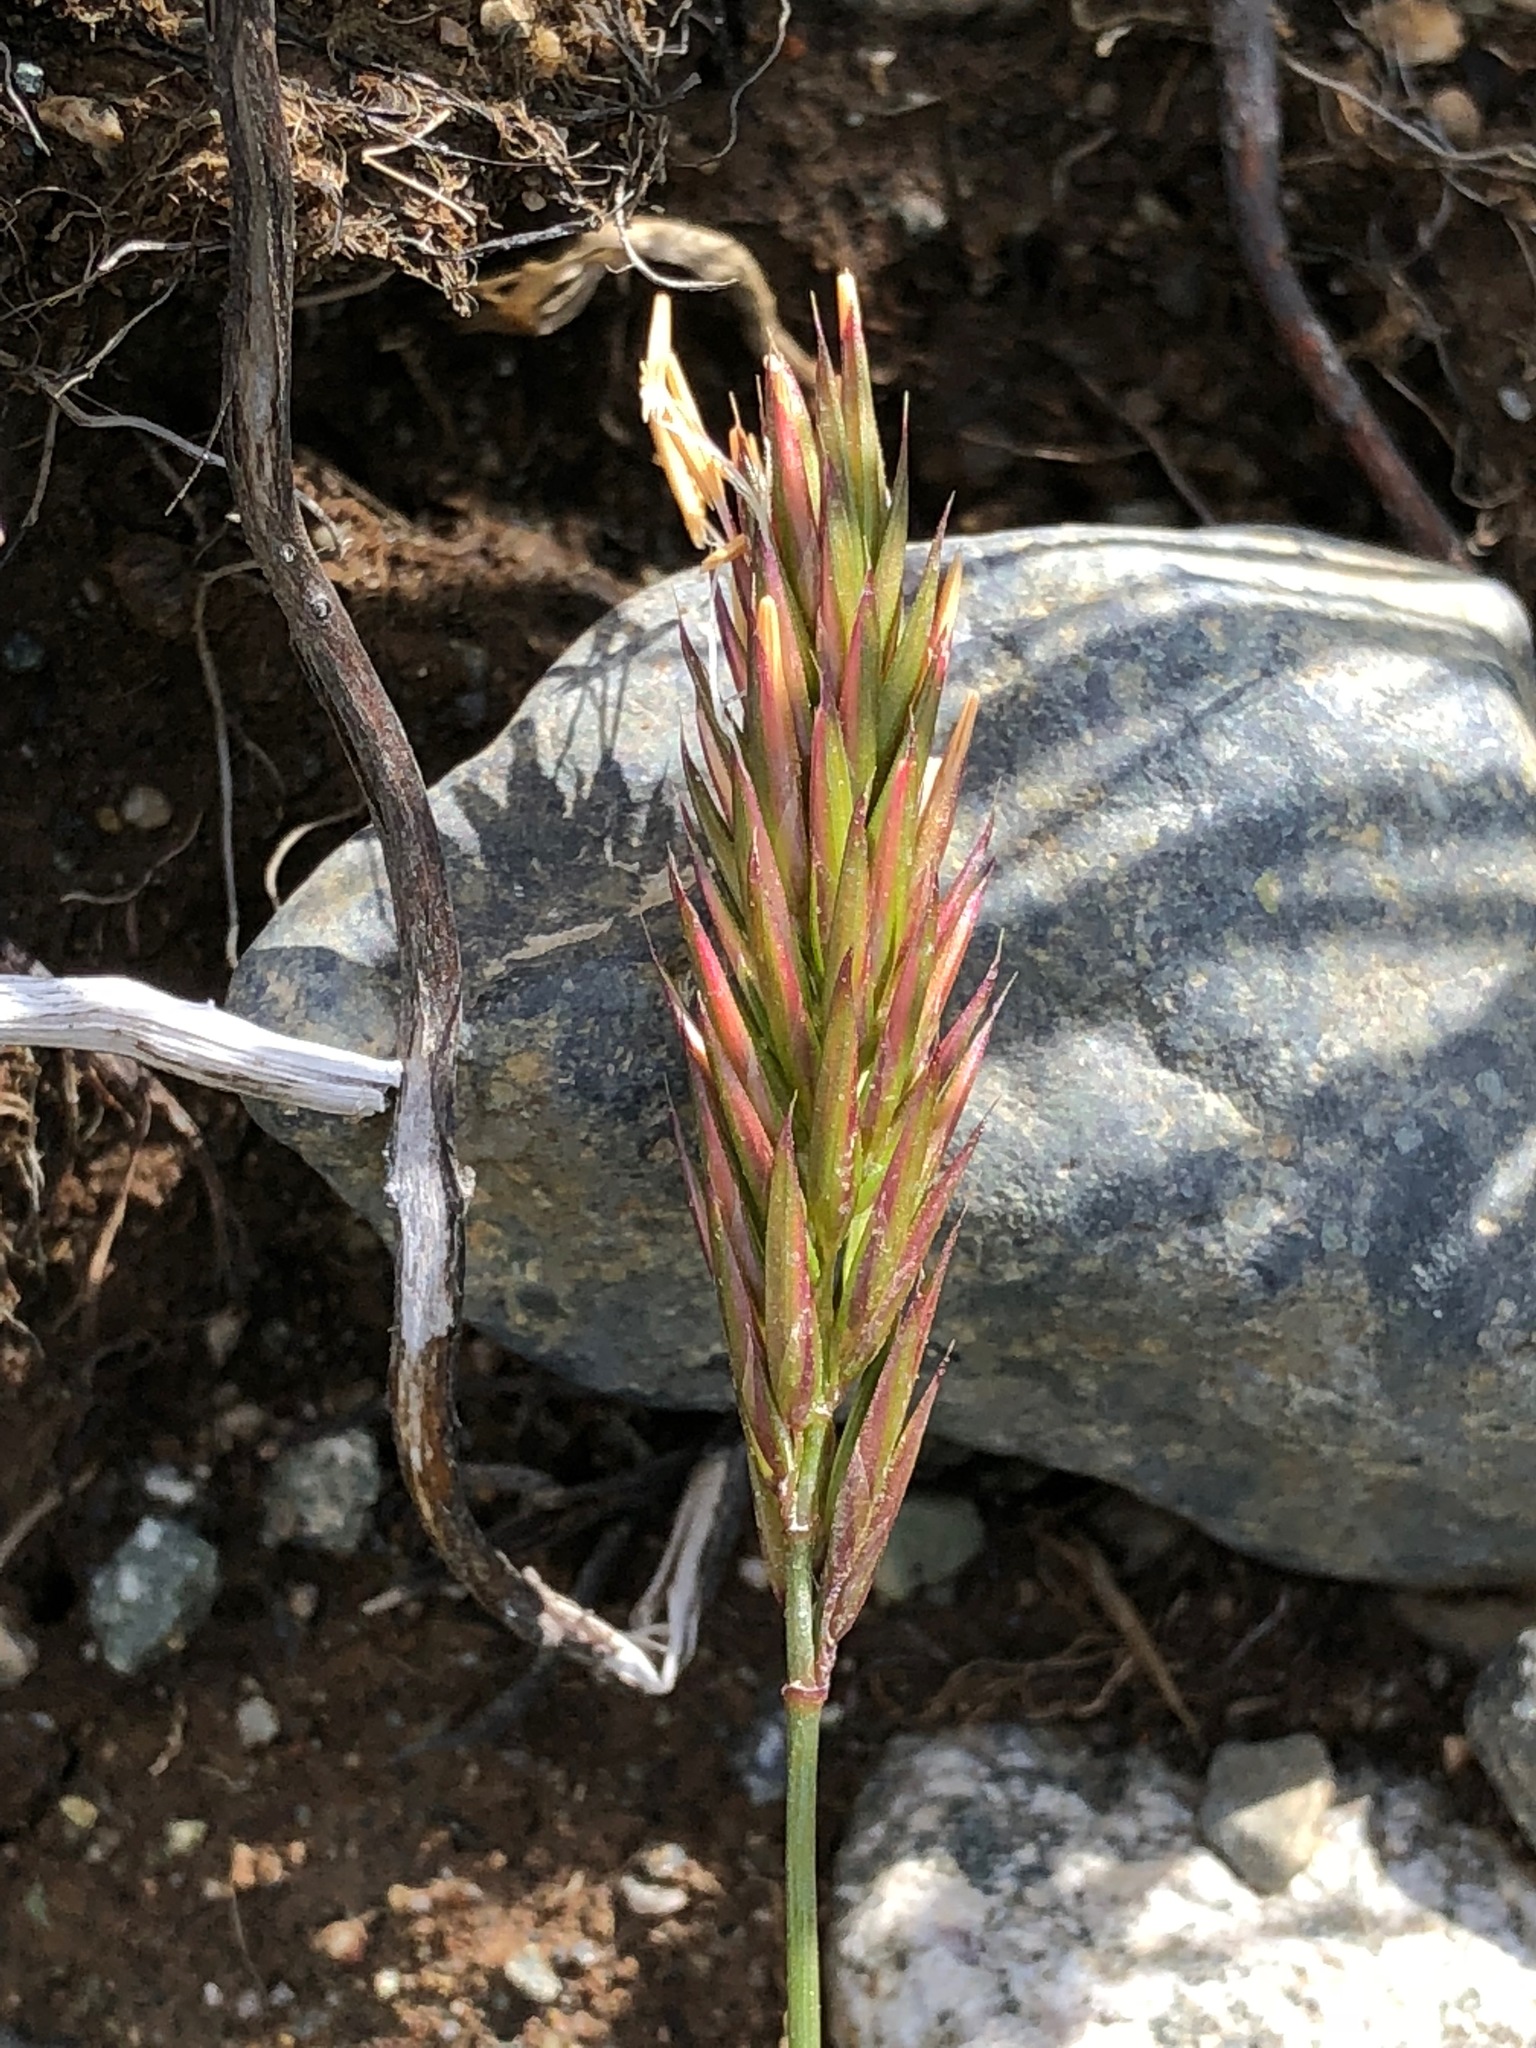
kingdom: Plantae
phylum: Tracheophyta
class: Liliopsida
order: Poales
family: Poaceae
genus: Anthoxanthum
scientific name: Anthoxanthum odoratum
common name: Sweet vernalgrass
